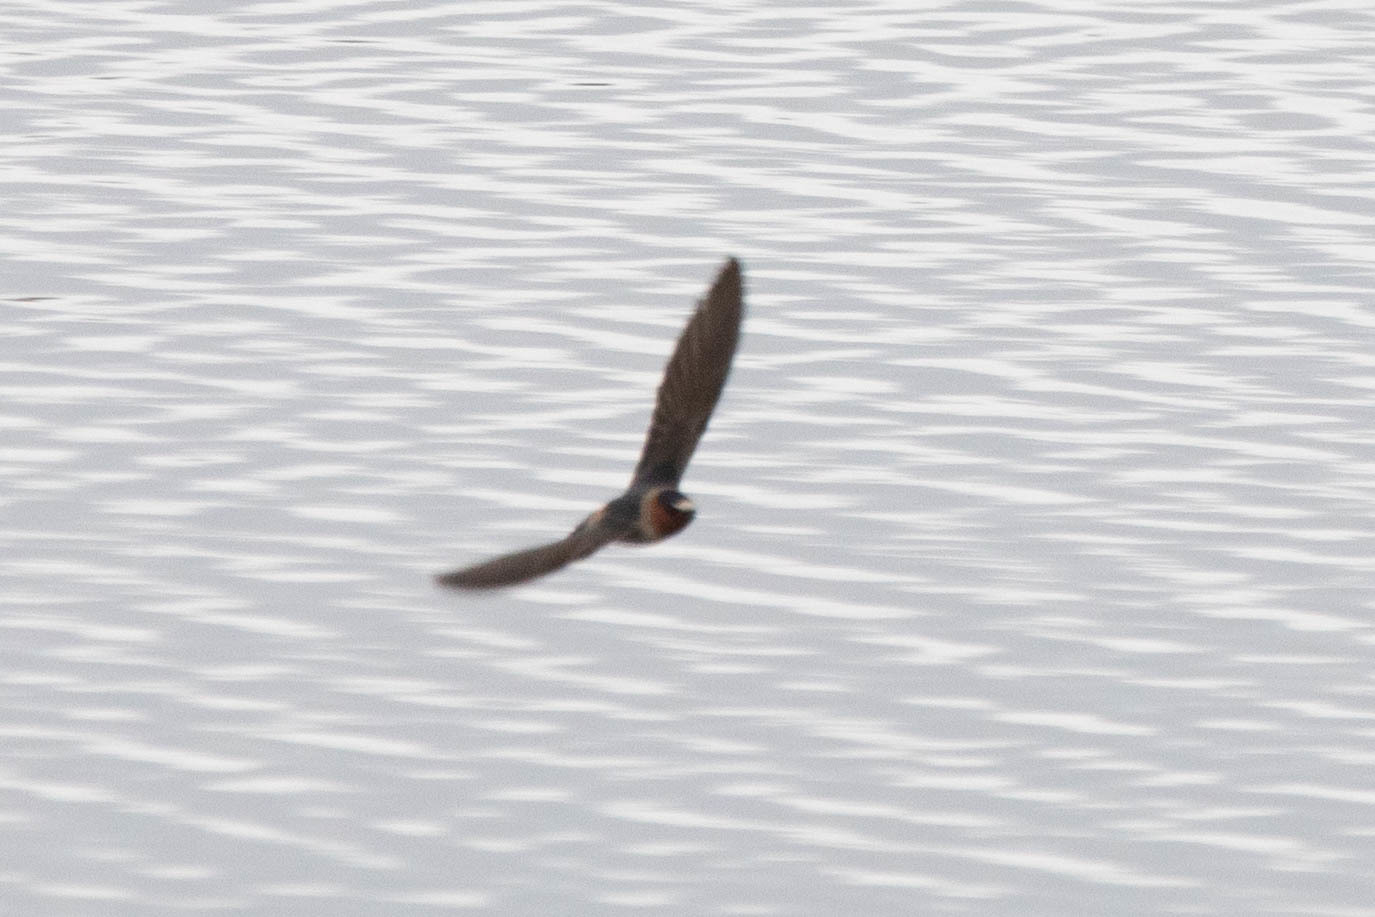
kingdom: Animalia
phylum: Chordata
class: Aves
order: Passeriformes
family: Hirundinidae
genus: Petrochelidon
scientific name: Petrochelidon pyrrhonota
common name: American cliff swallow
